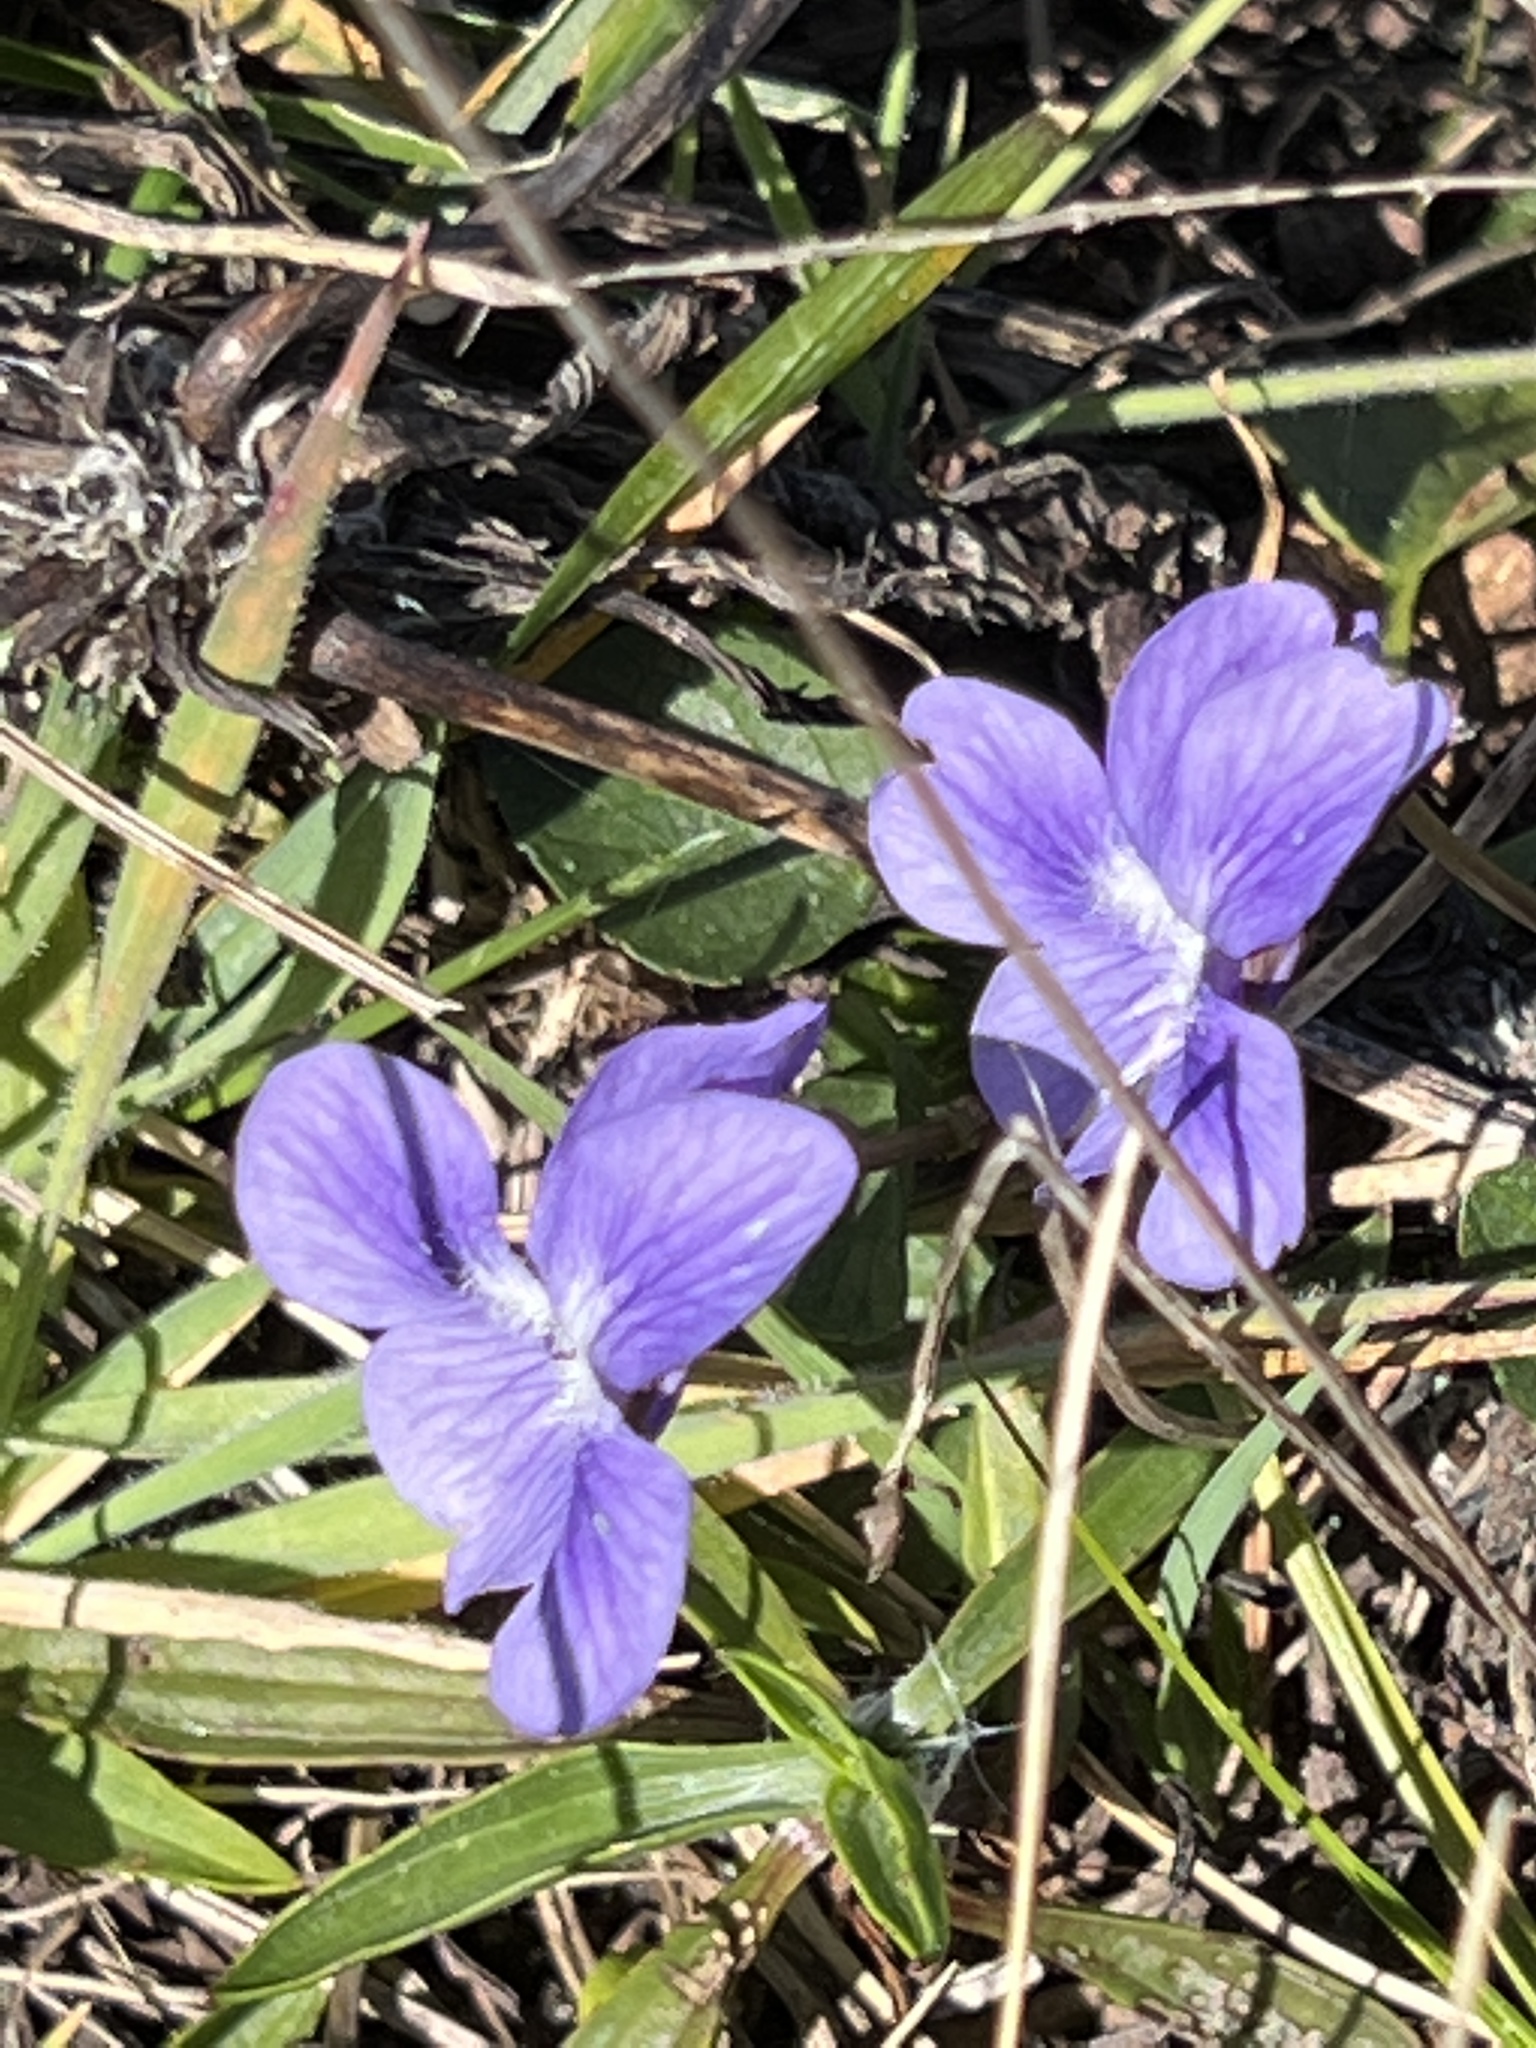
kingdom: Plantae
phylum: Tracheophyta
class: Magnoliopsida
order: Malpighiales
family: Violaceae
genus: Viola
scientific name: Viola adunca
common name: Sand violet
